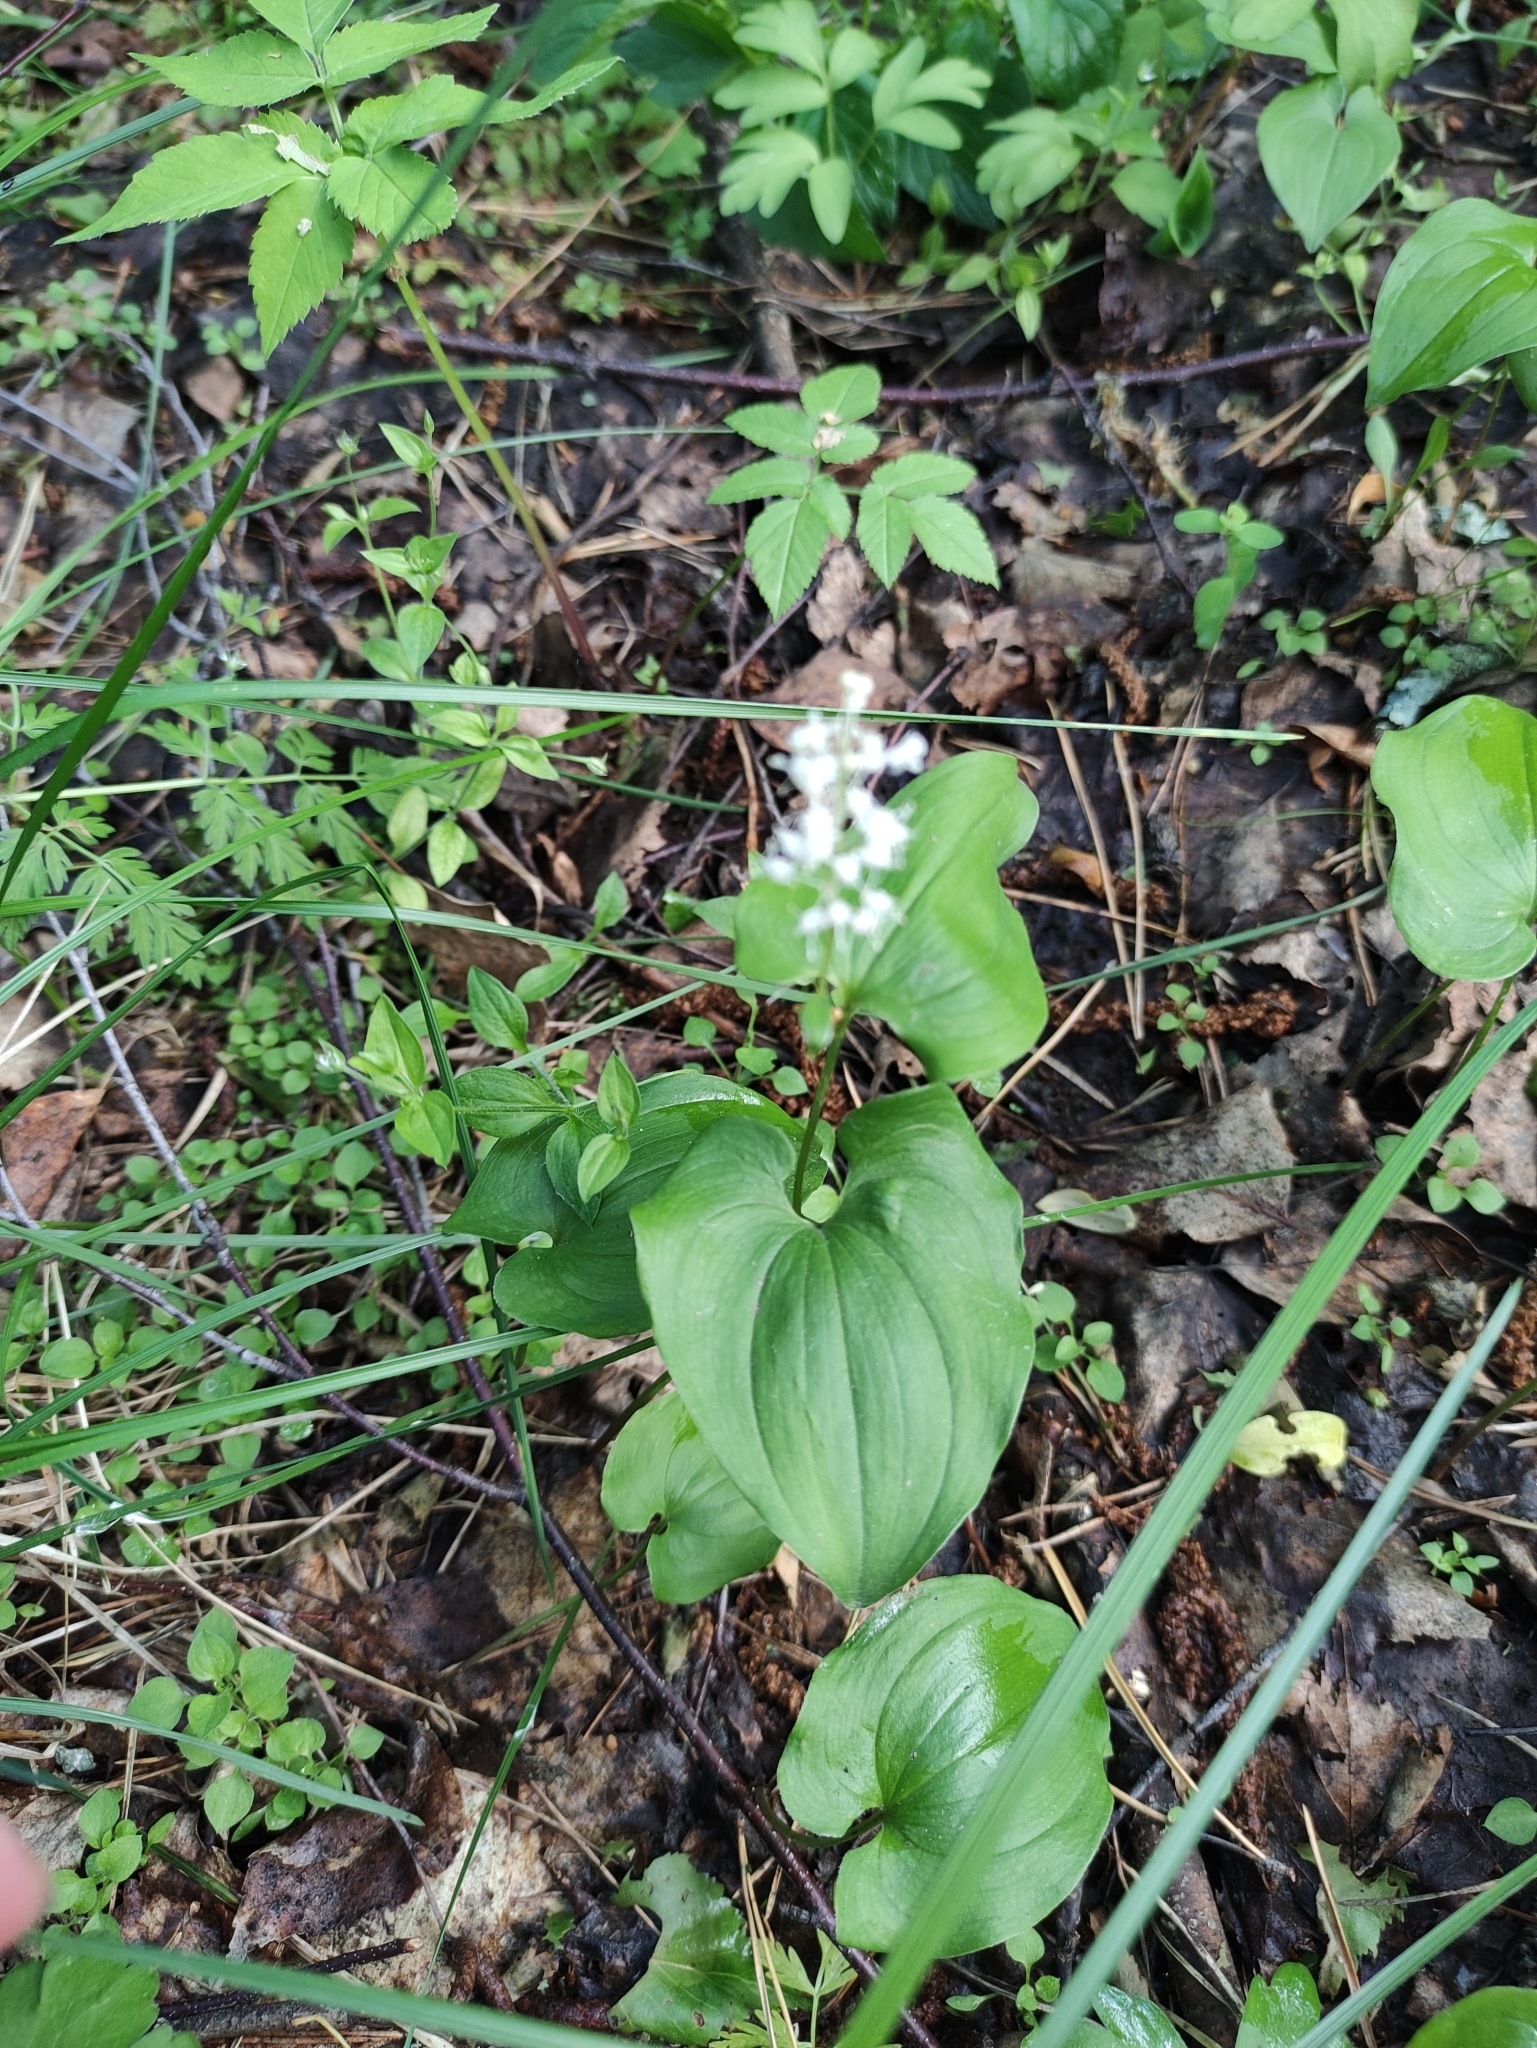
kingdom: Plantae
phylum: Tracheophyta
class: Liliopsida
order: Asparagales
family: Asparagaceae
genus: Maianthemum
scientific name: Maianthemum bifolium
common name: May lily
